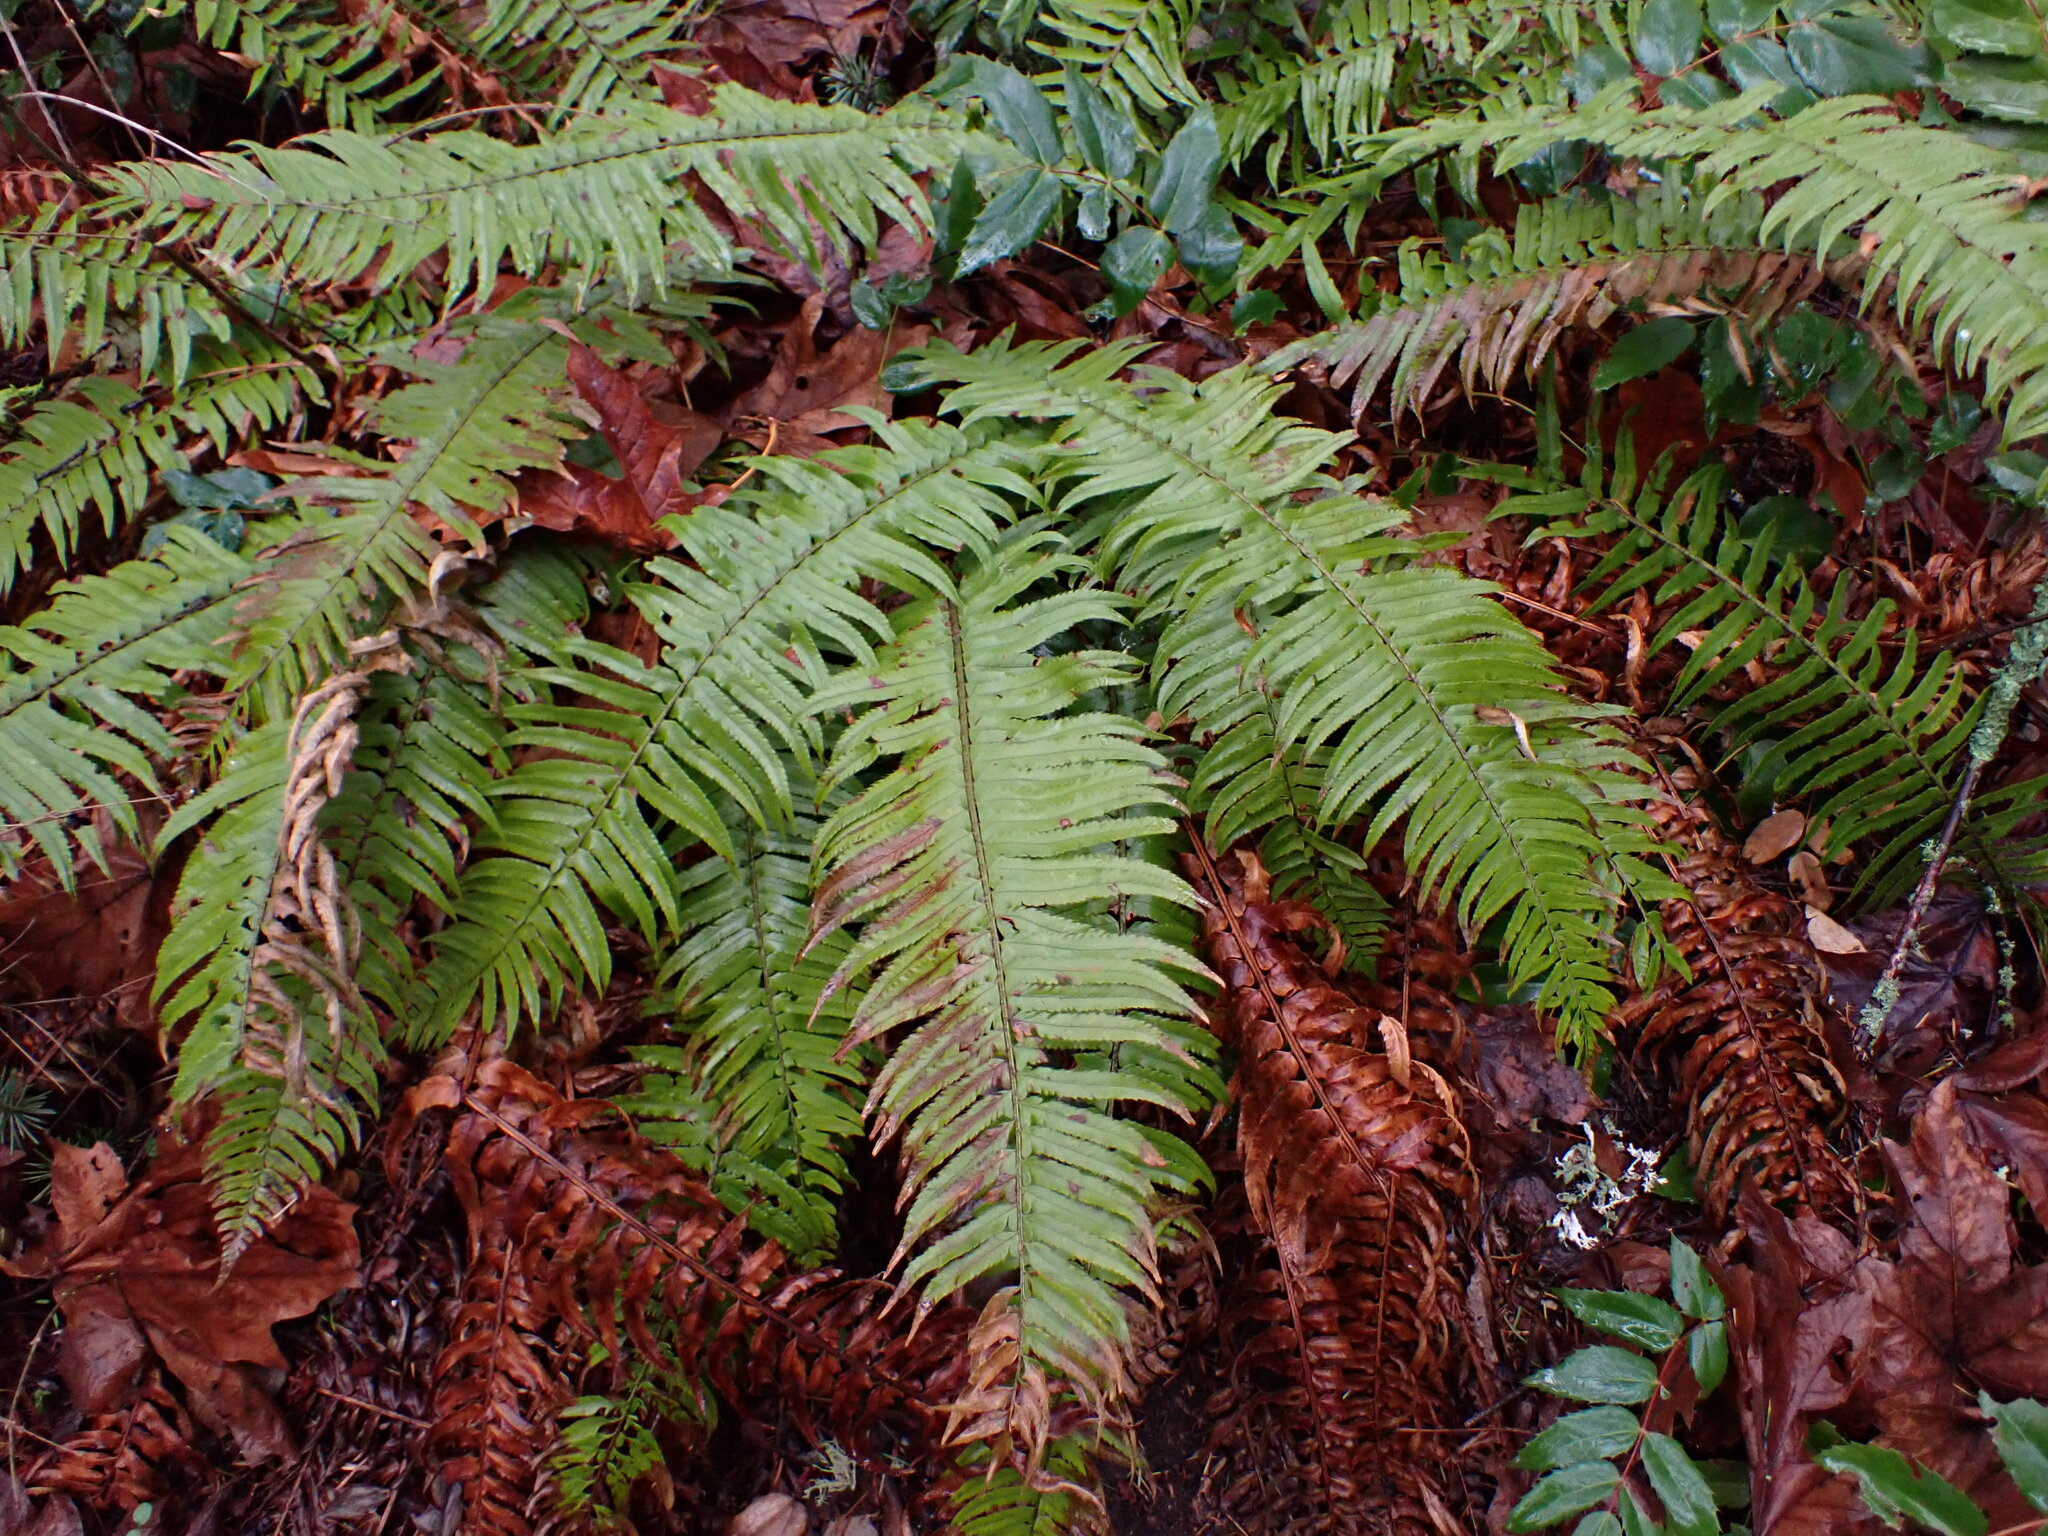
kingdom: Plantae
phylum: Tracheophyta
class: Polypodiopsida
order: Polypodiales
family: Dryopteridaceae
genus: Polystichum
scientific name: Polystichum munitum
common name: Western sword-fern
